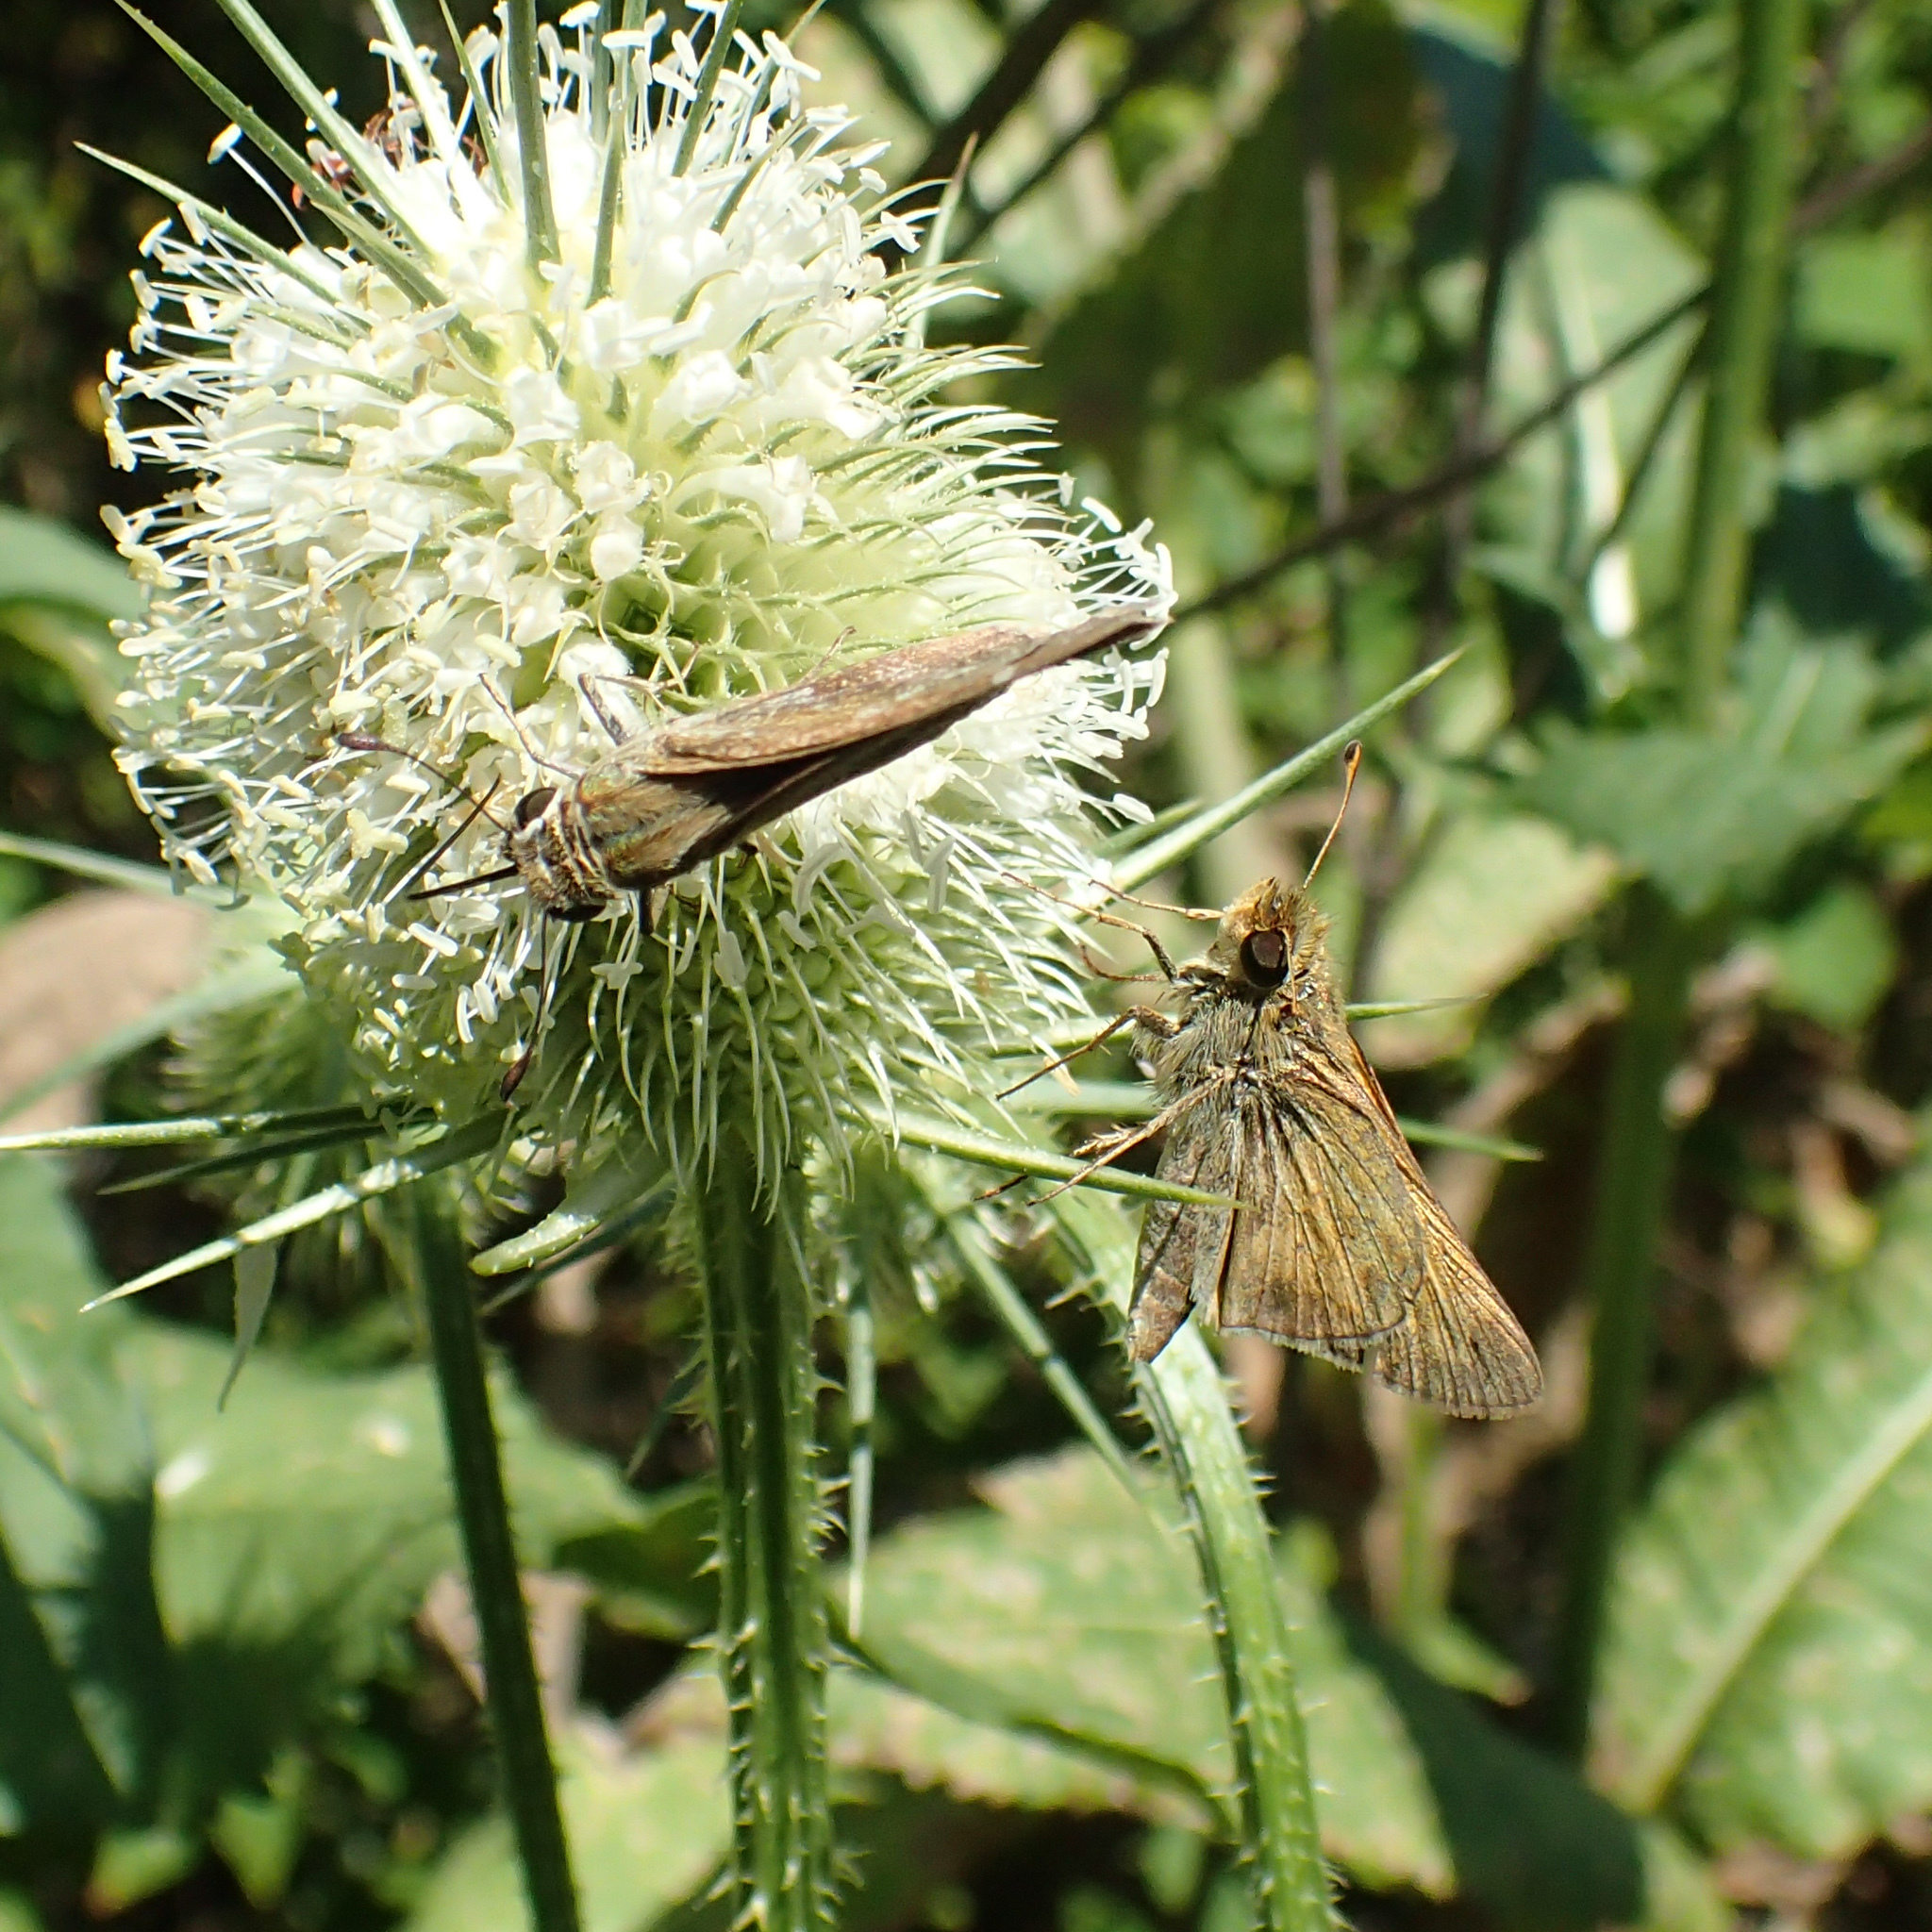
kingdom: Animalia
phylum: Arthropoda
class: Insecta
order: Lepidoptera
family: Hesperiidae
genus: Atalopedes
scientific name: Atalopedes
